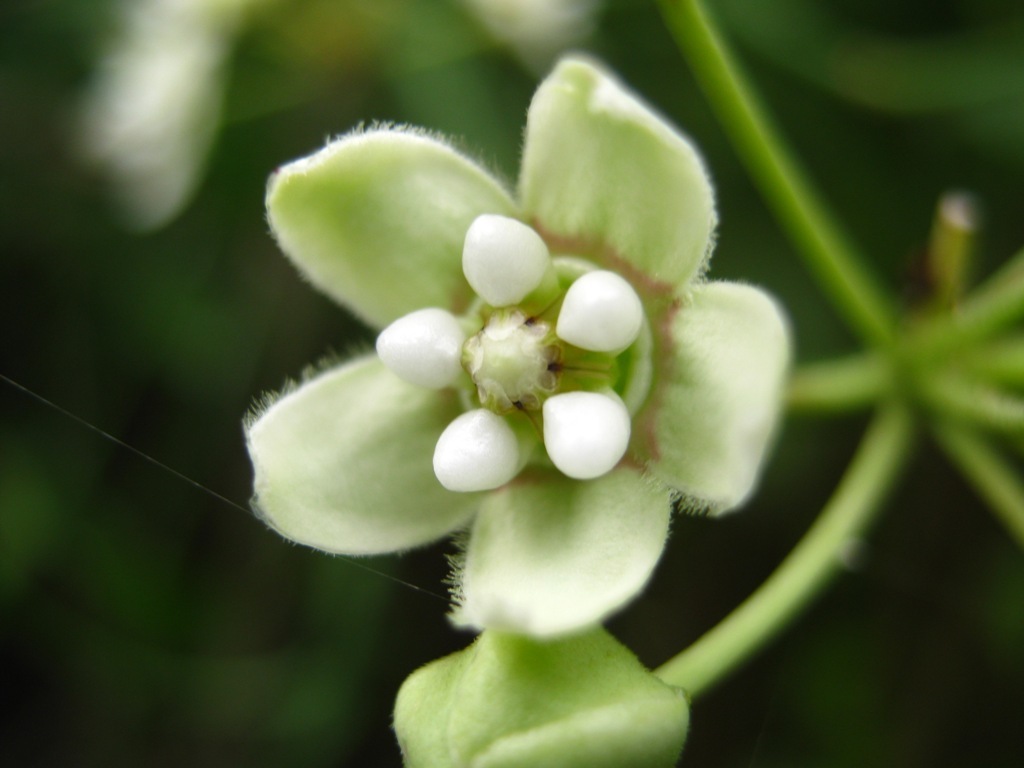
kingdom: Plantae
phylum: Tracheophyta
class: Magnoliopsida
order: Gentianales
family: Apocynaceae
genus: Funastrum
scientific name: Funastrum clausum
